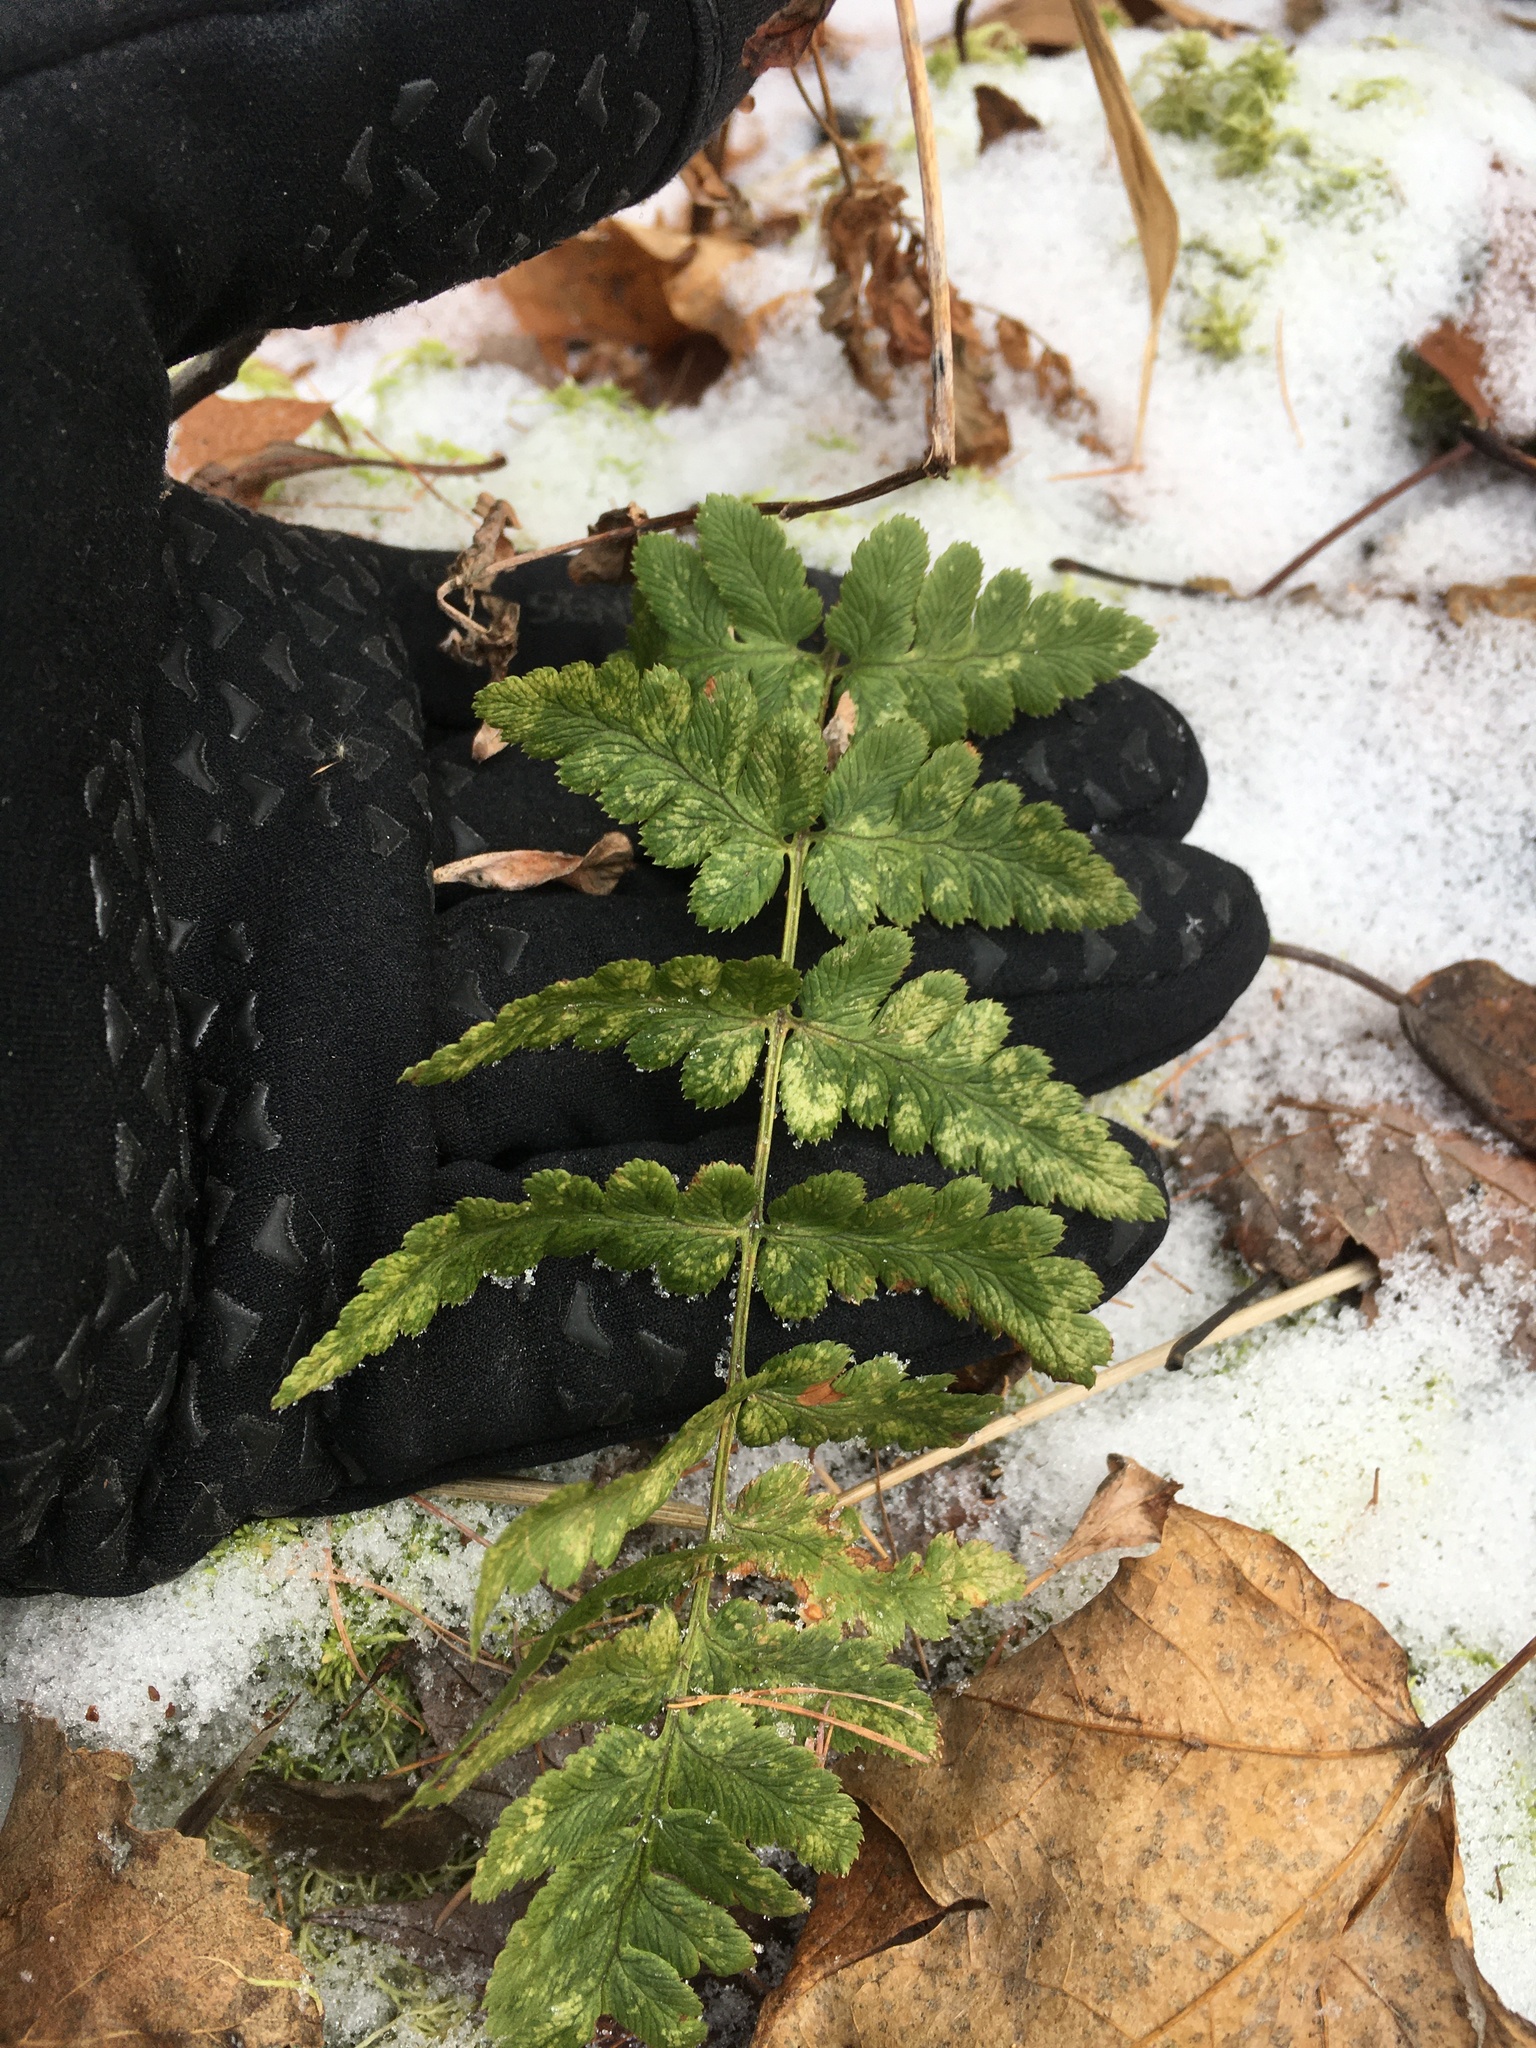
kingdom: Plantae
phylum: Tracheophyta
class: Polypodiopsida
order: Polypodiales
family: Dryopteridaceae
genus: Dryopteris
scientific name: Dryopteris cristata
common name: Crested wood fern
